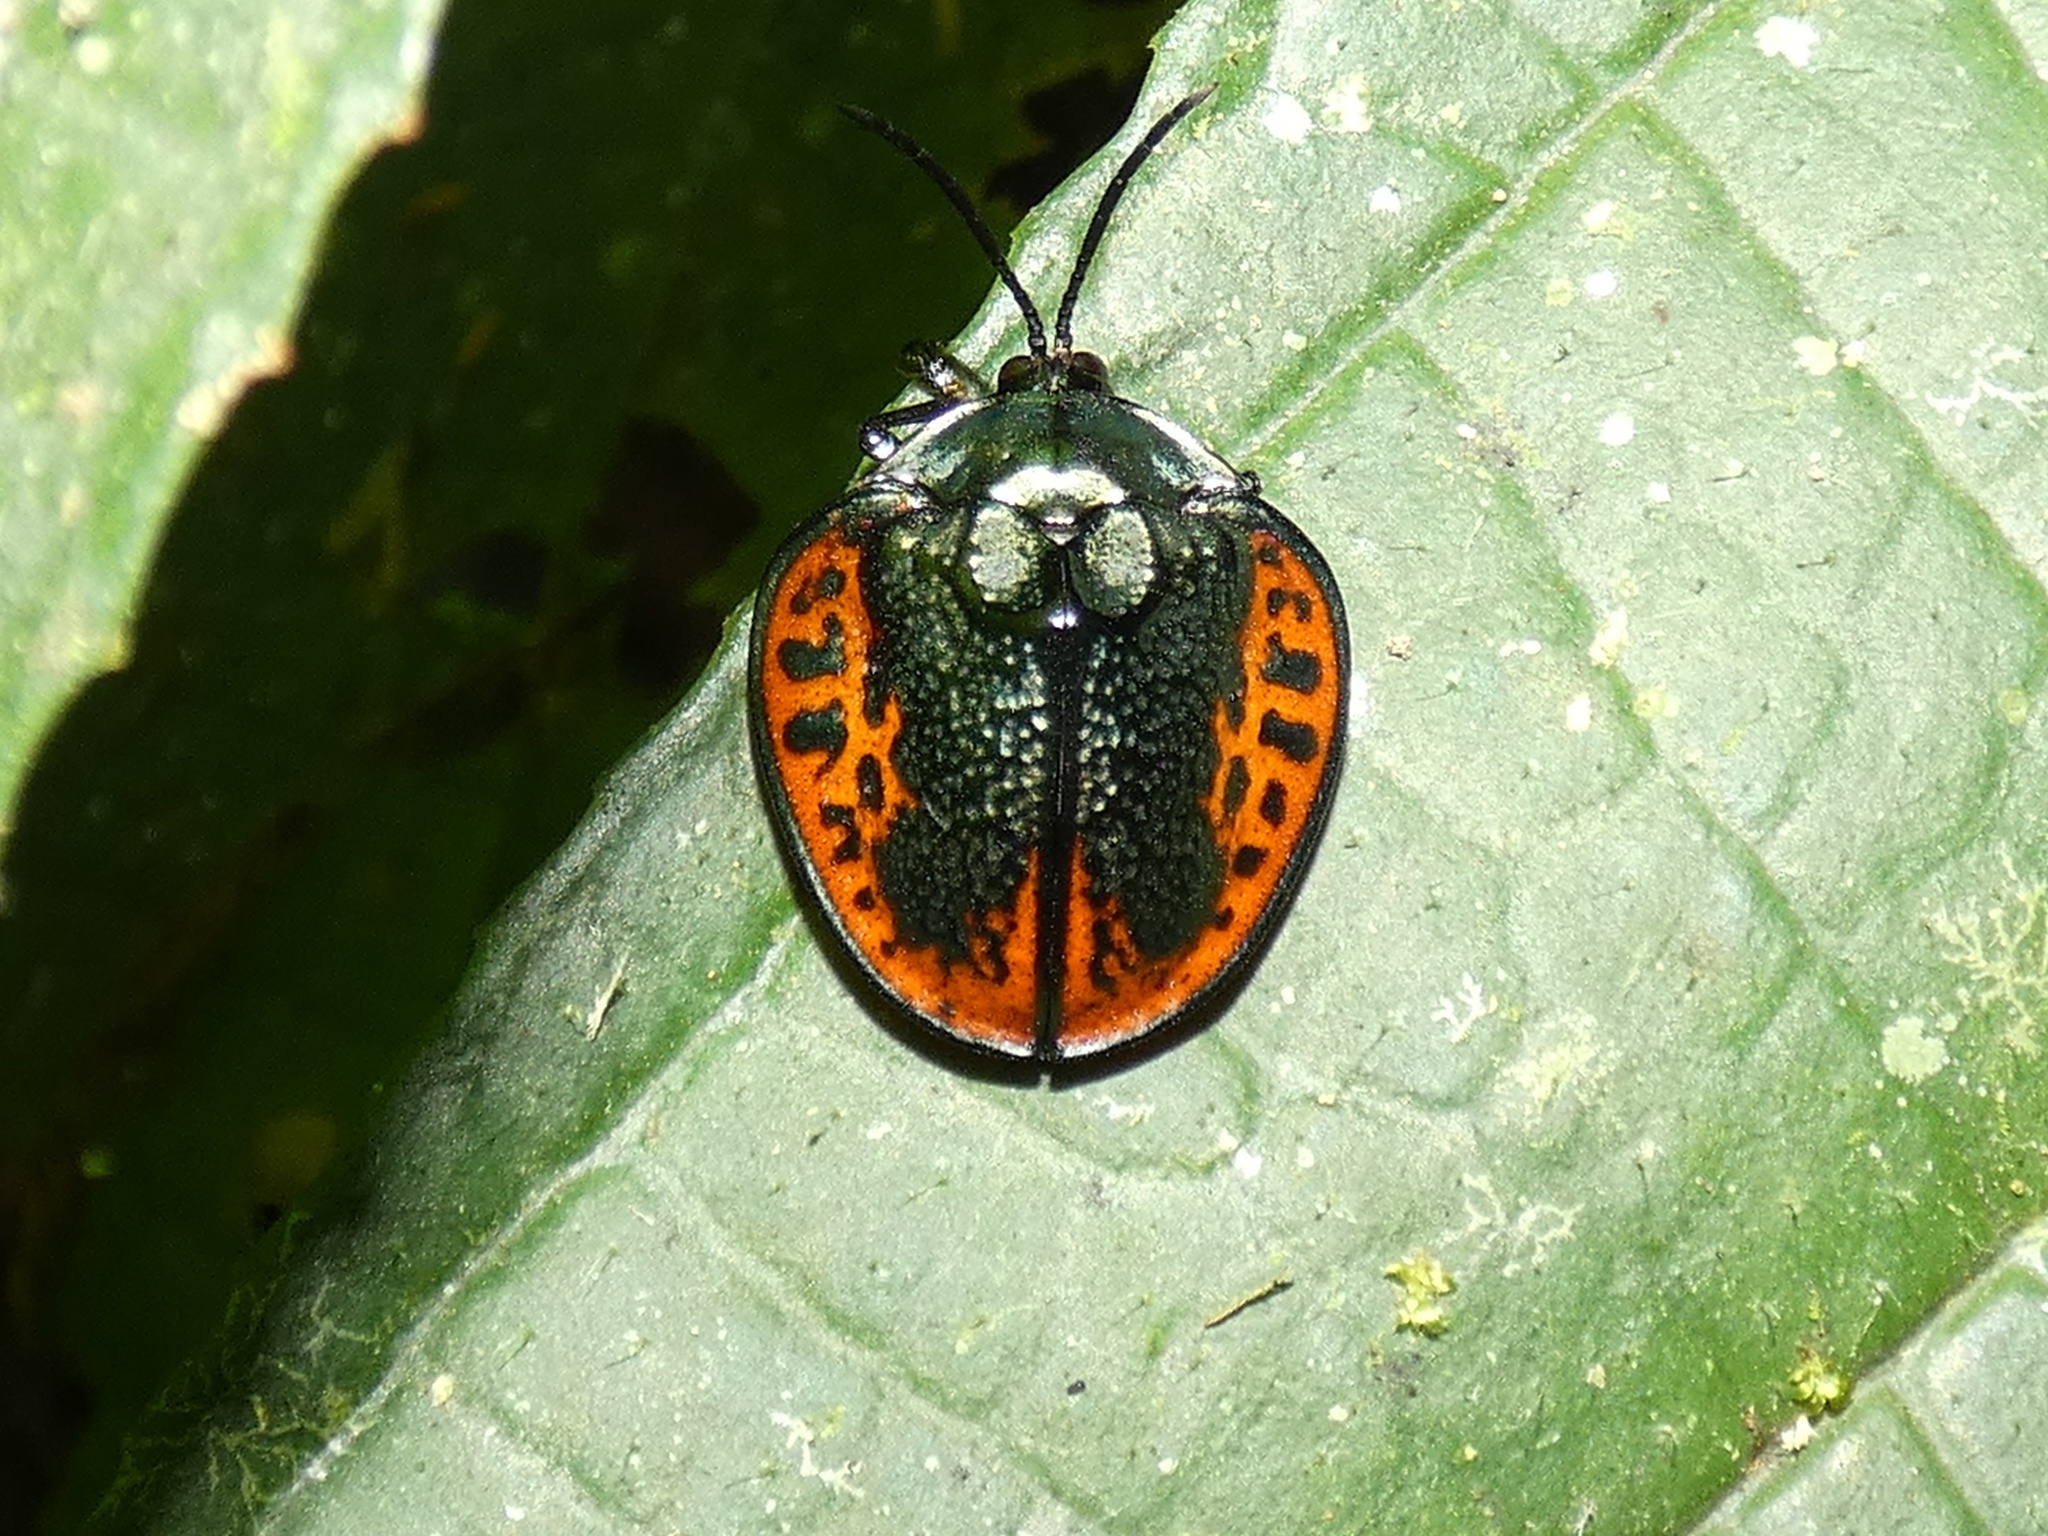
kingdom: Animalia
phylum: Arthropoda
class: Insecta
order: Coleoptera
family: Chrysomelidae
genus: Discomorpha
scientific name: Discomorpha salvini
